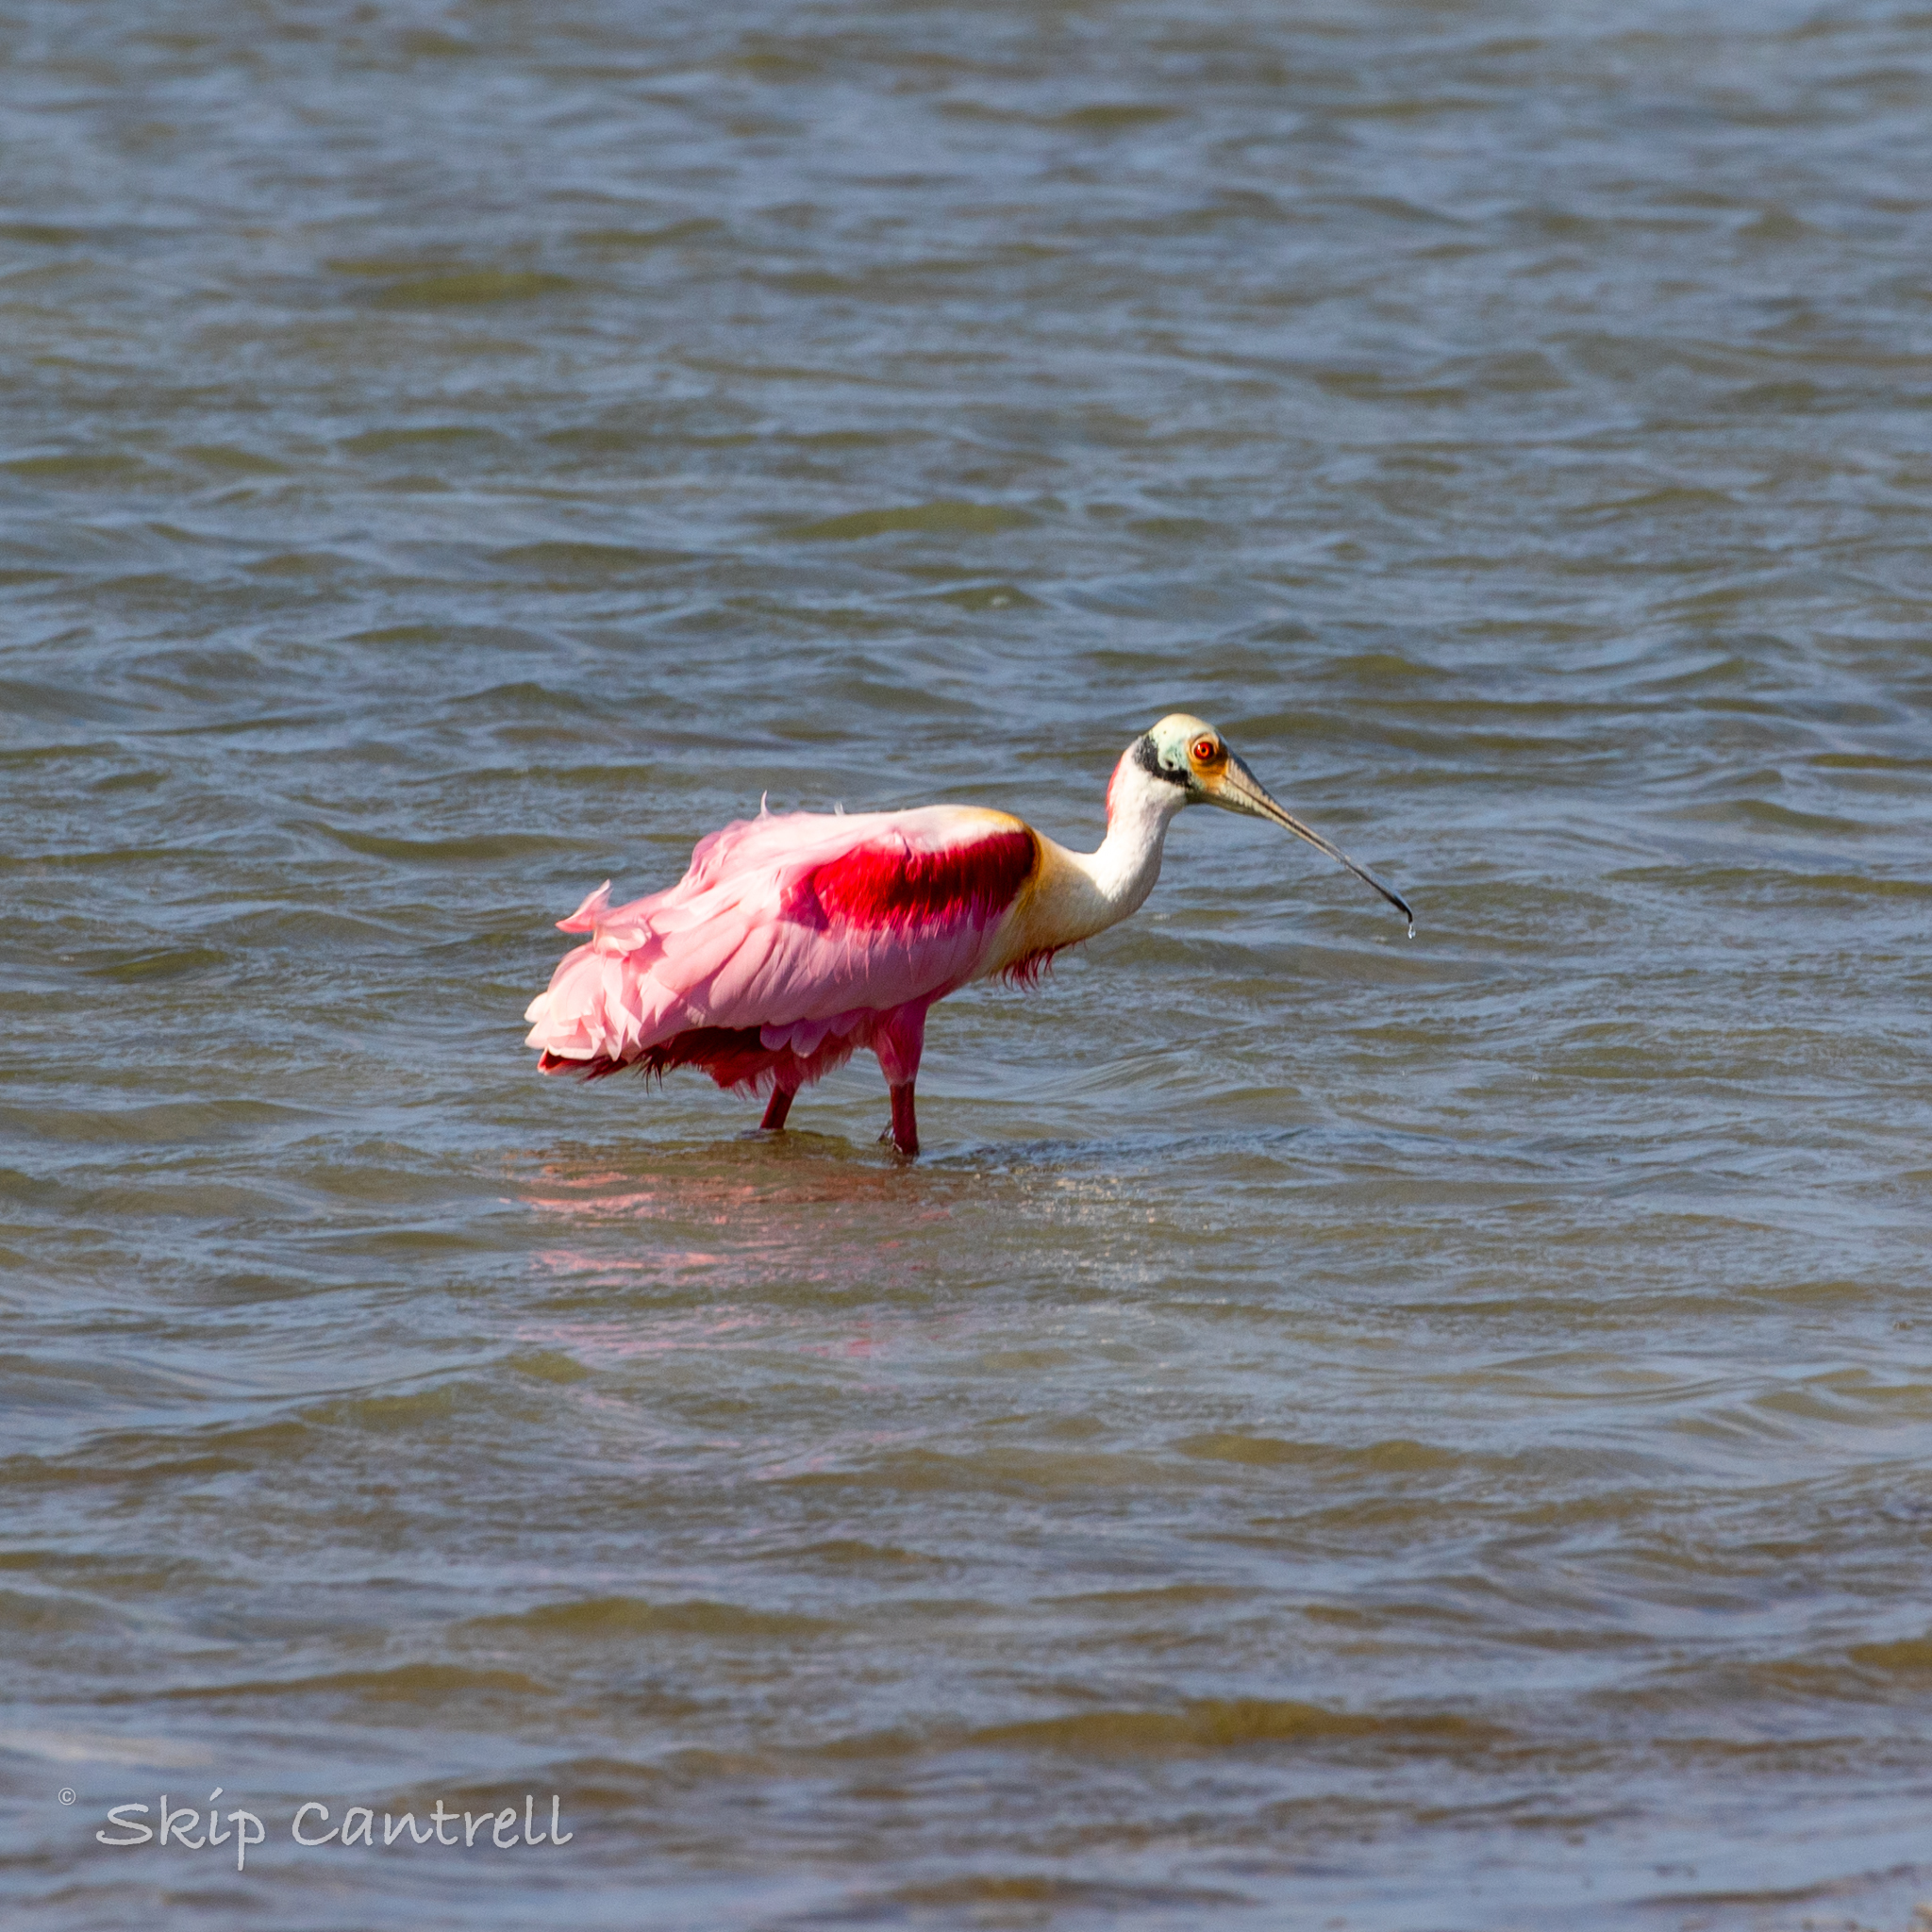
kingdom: Animalia
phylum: Chordata
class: Aves
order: Pelecaniformes
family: Threskiornithidae
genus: Platalea
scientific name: Platalea ajaja
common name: Roseate spoonbill
